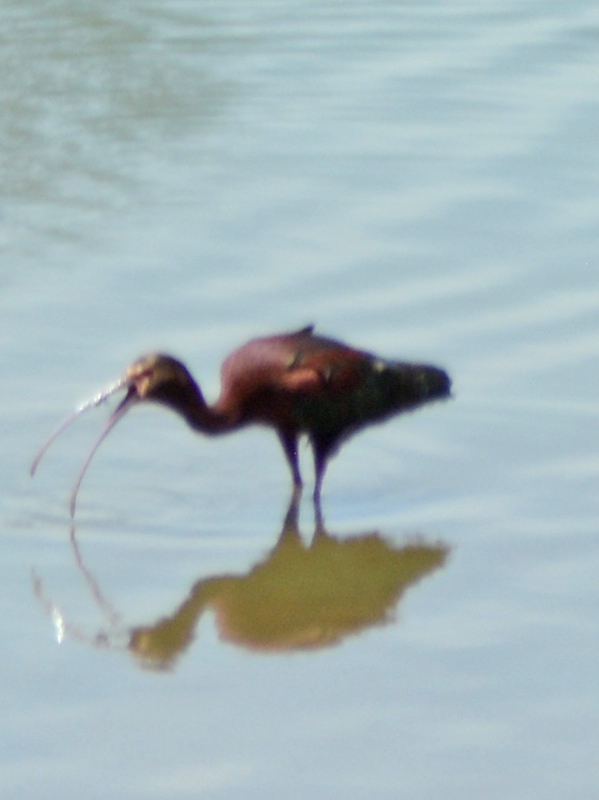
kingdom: Animalia
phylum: Chordata
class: Aves
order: Pelecaniformes
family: Threskiornithidae
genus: Plegadis
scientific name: Plegadis chihi
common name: White-faced ibis
